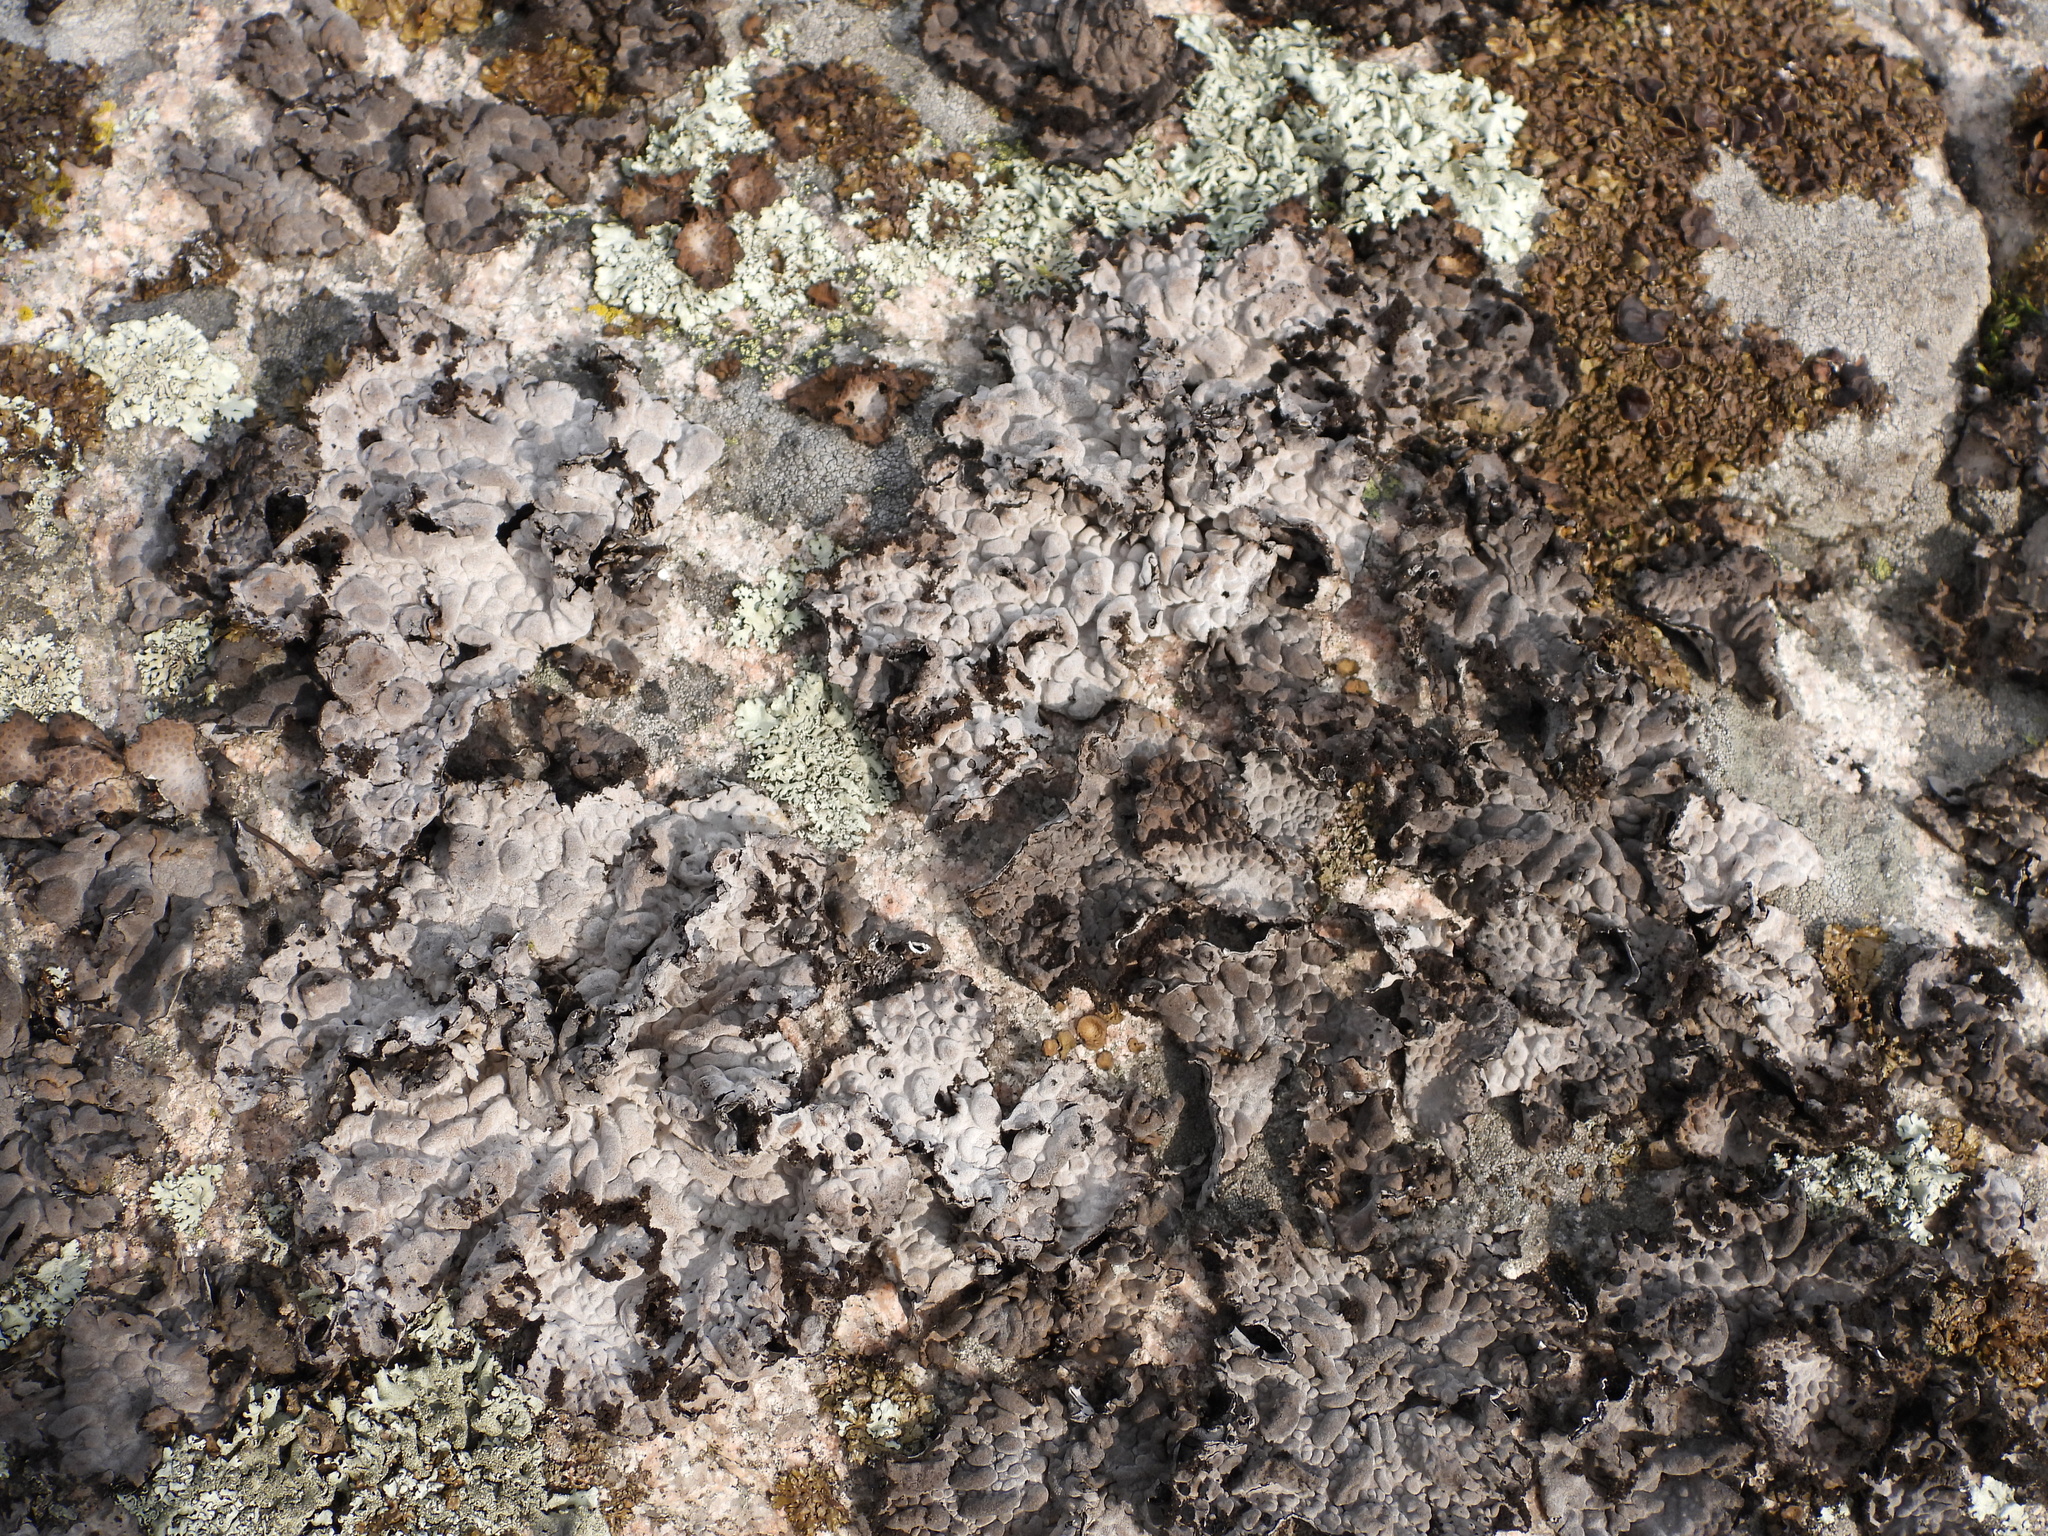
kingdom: Fungi
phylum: Ascomycota
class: Lecanoromycetes
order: Umbilicariales
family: Umbilicariaceae
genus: Lasallia
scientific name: Lasallia pustulata
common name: Blistered toadskin lichen
